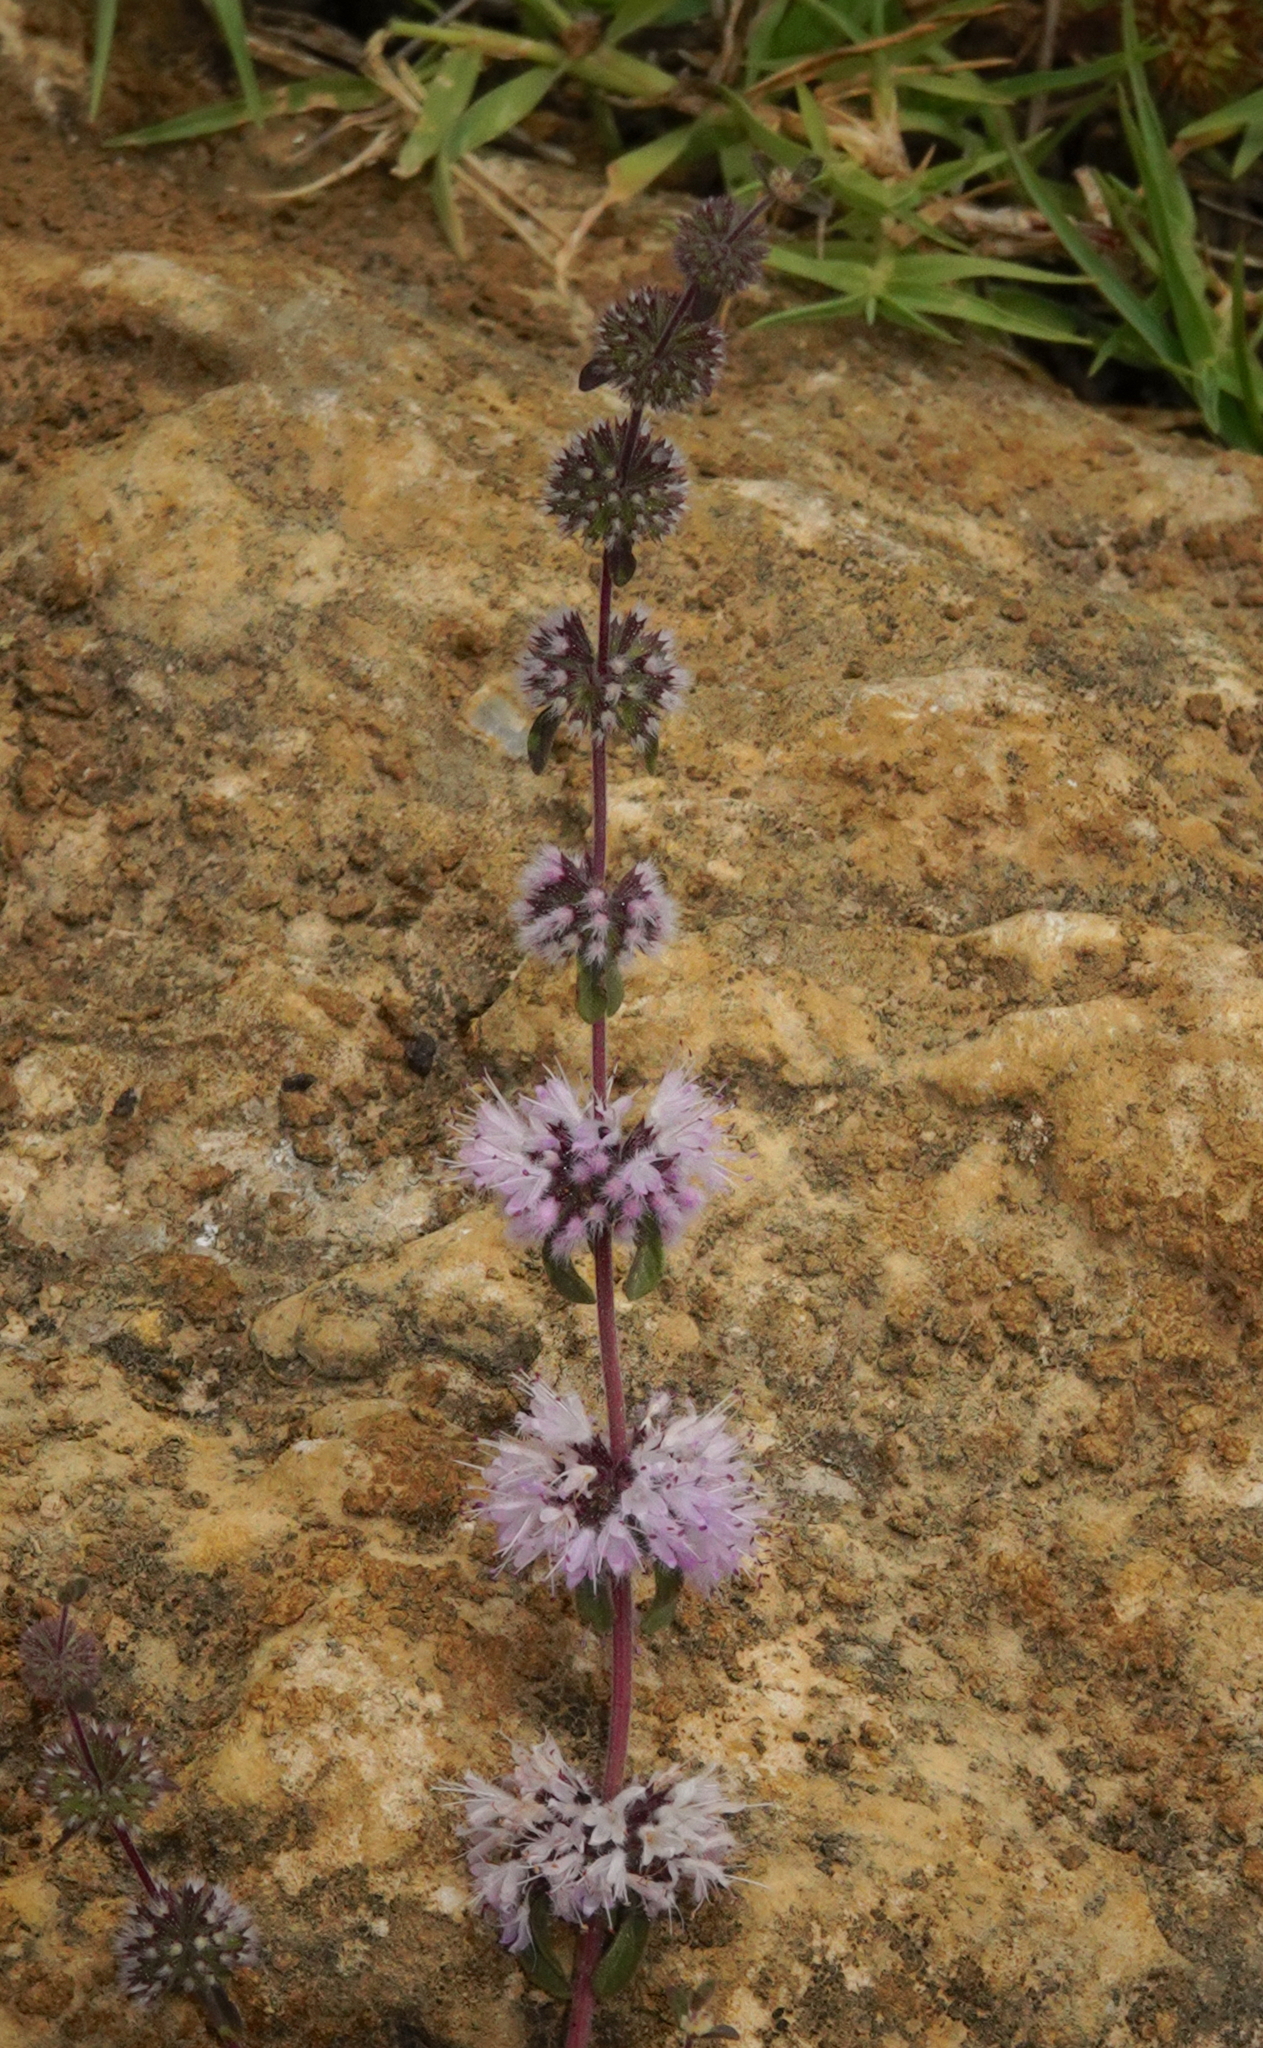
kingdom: Plantae
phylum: Tracheophyta
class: Magnoliopsida
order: Lamiales
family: Lamiaceae
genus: Mentha
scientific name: Mentha pulegium
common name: Pennyroyal
